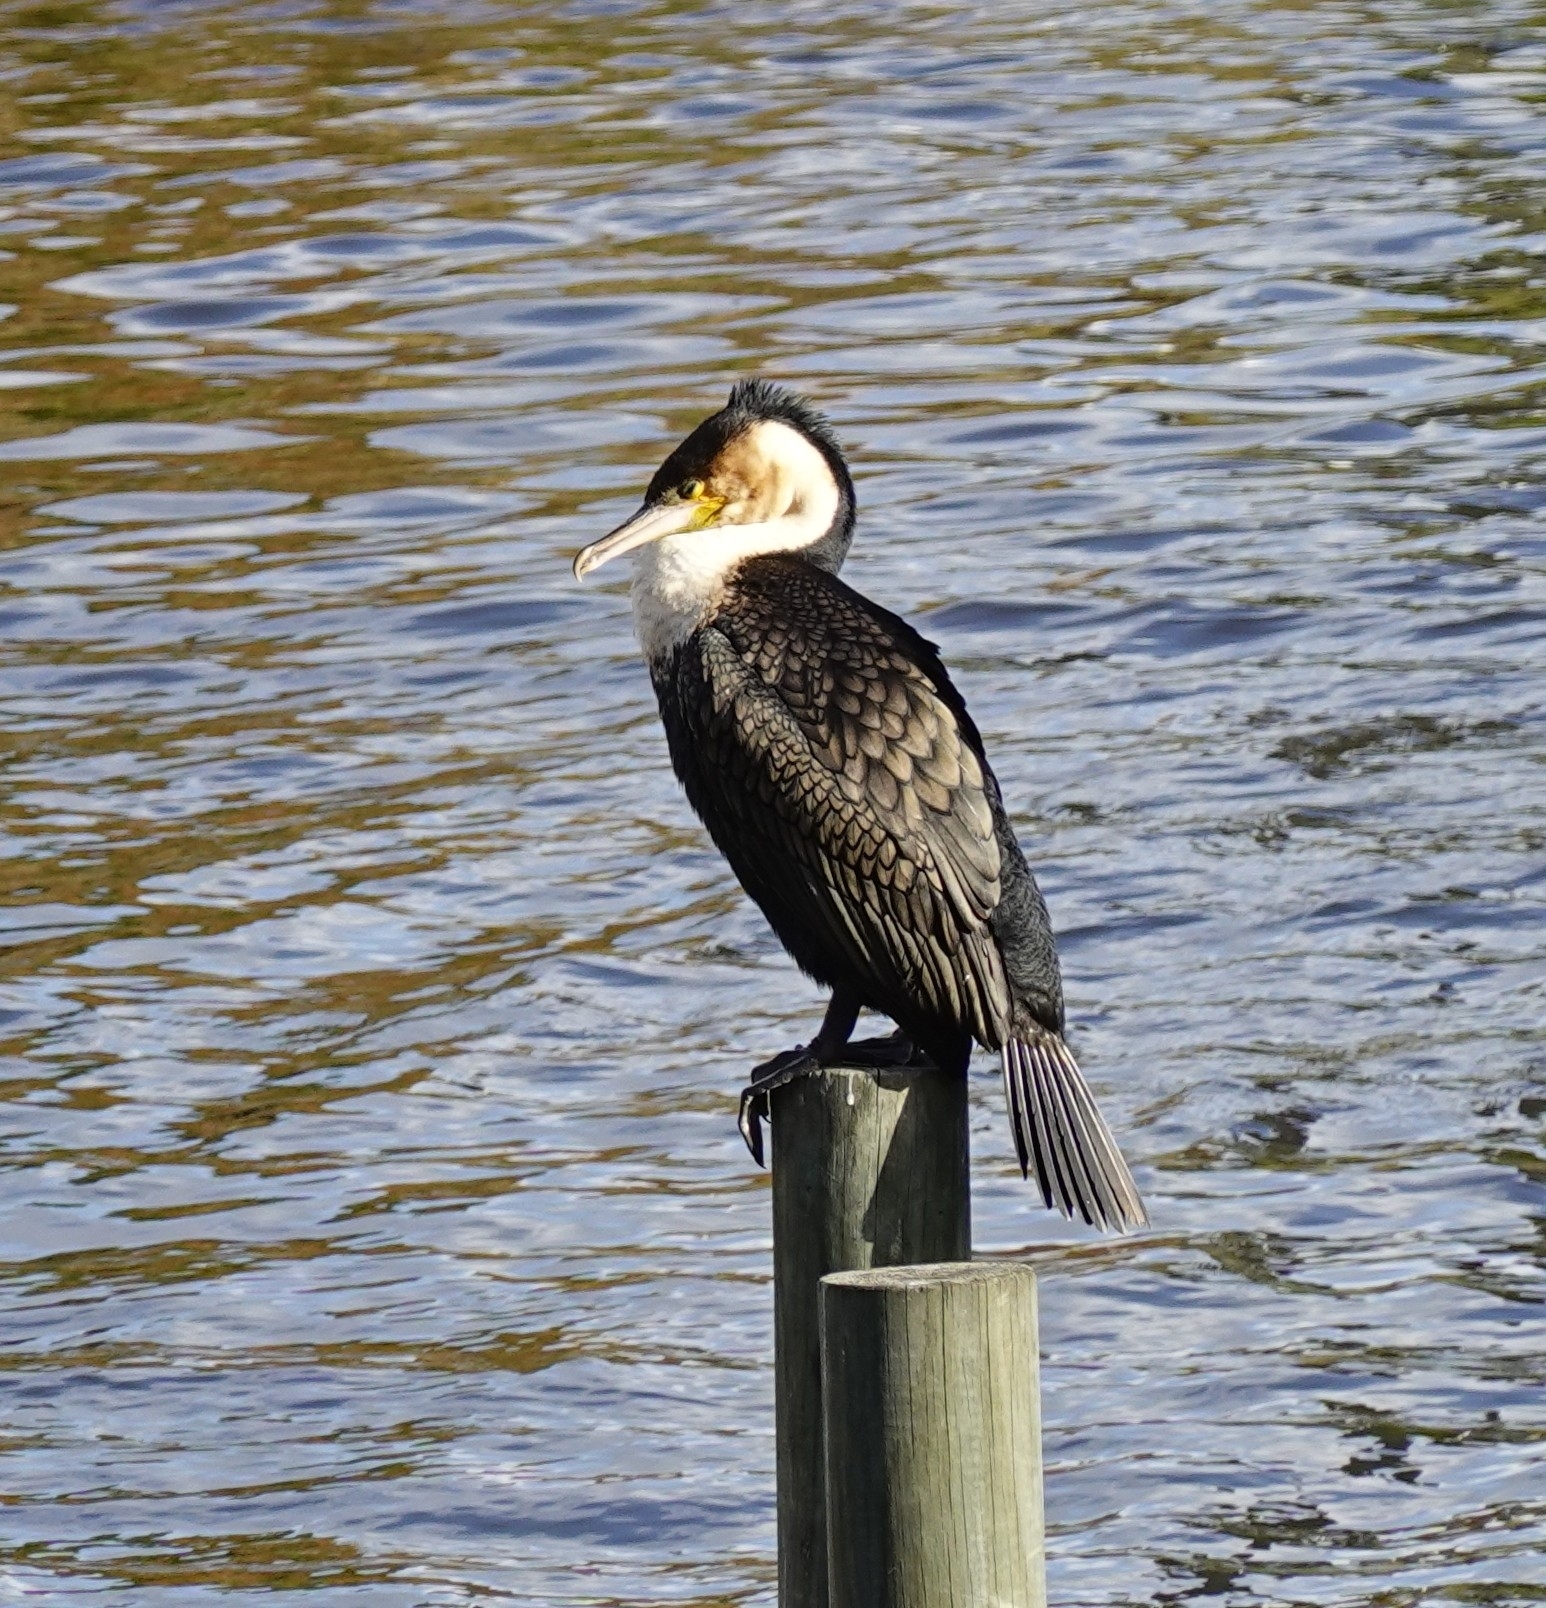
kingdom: Animalia
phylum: Chordata
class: Aves
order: Suliformes
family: Phalacrocoracidae
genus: Phalacrocorax
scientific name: Phalacrocorax carbo
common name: Great cormorant
